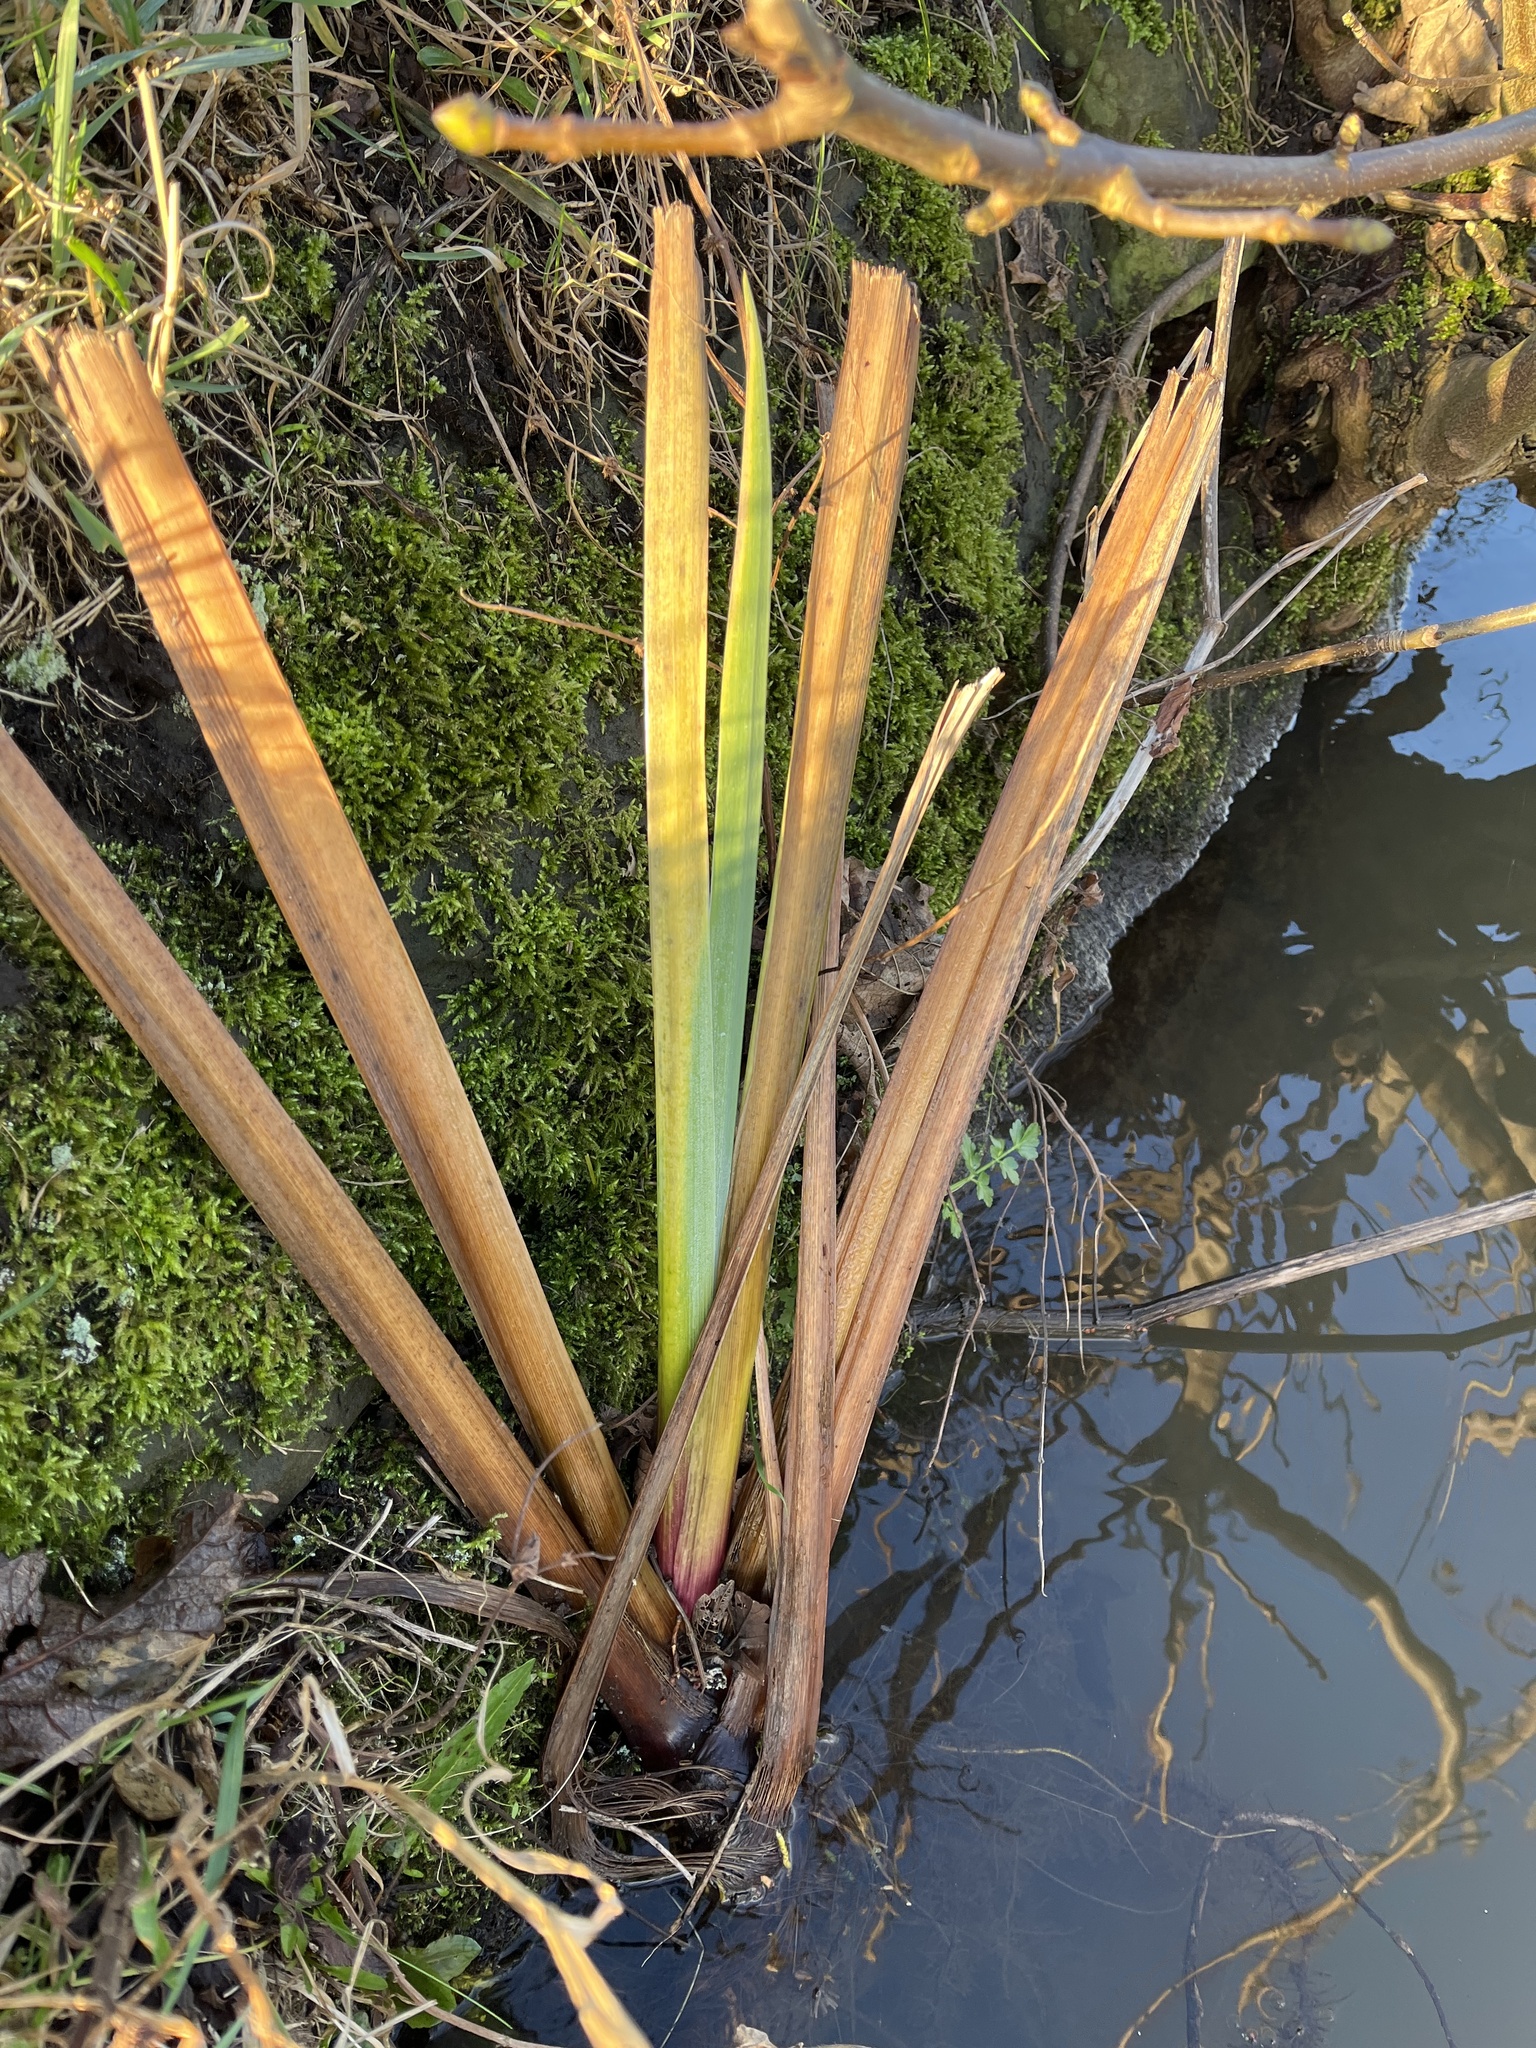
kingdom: Plantae
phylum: Tracheophyta
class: Liliopsida
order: Asparagales
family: Iridaceae
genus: Iris
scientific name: Iris pseudacorus
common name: Yellow flag
